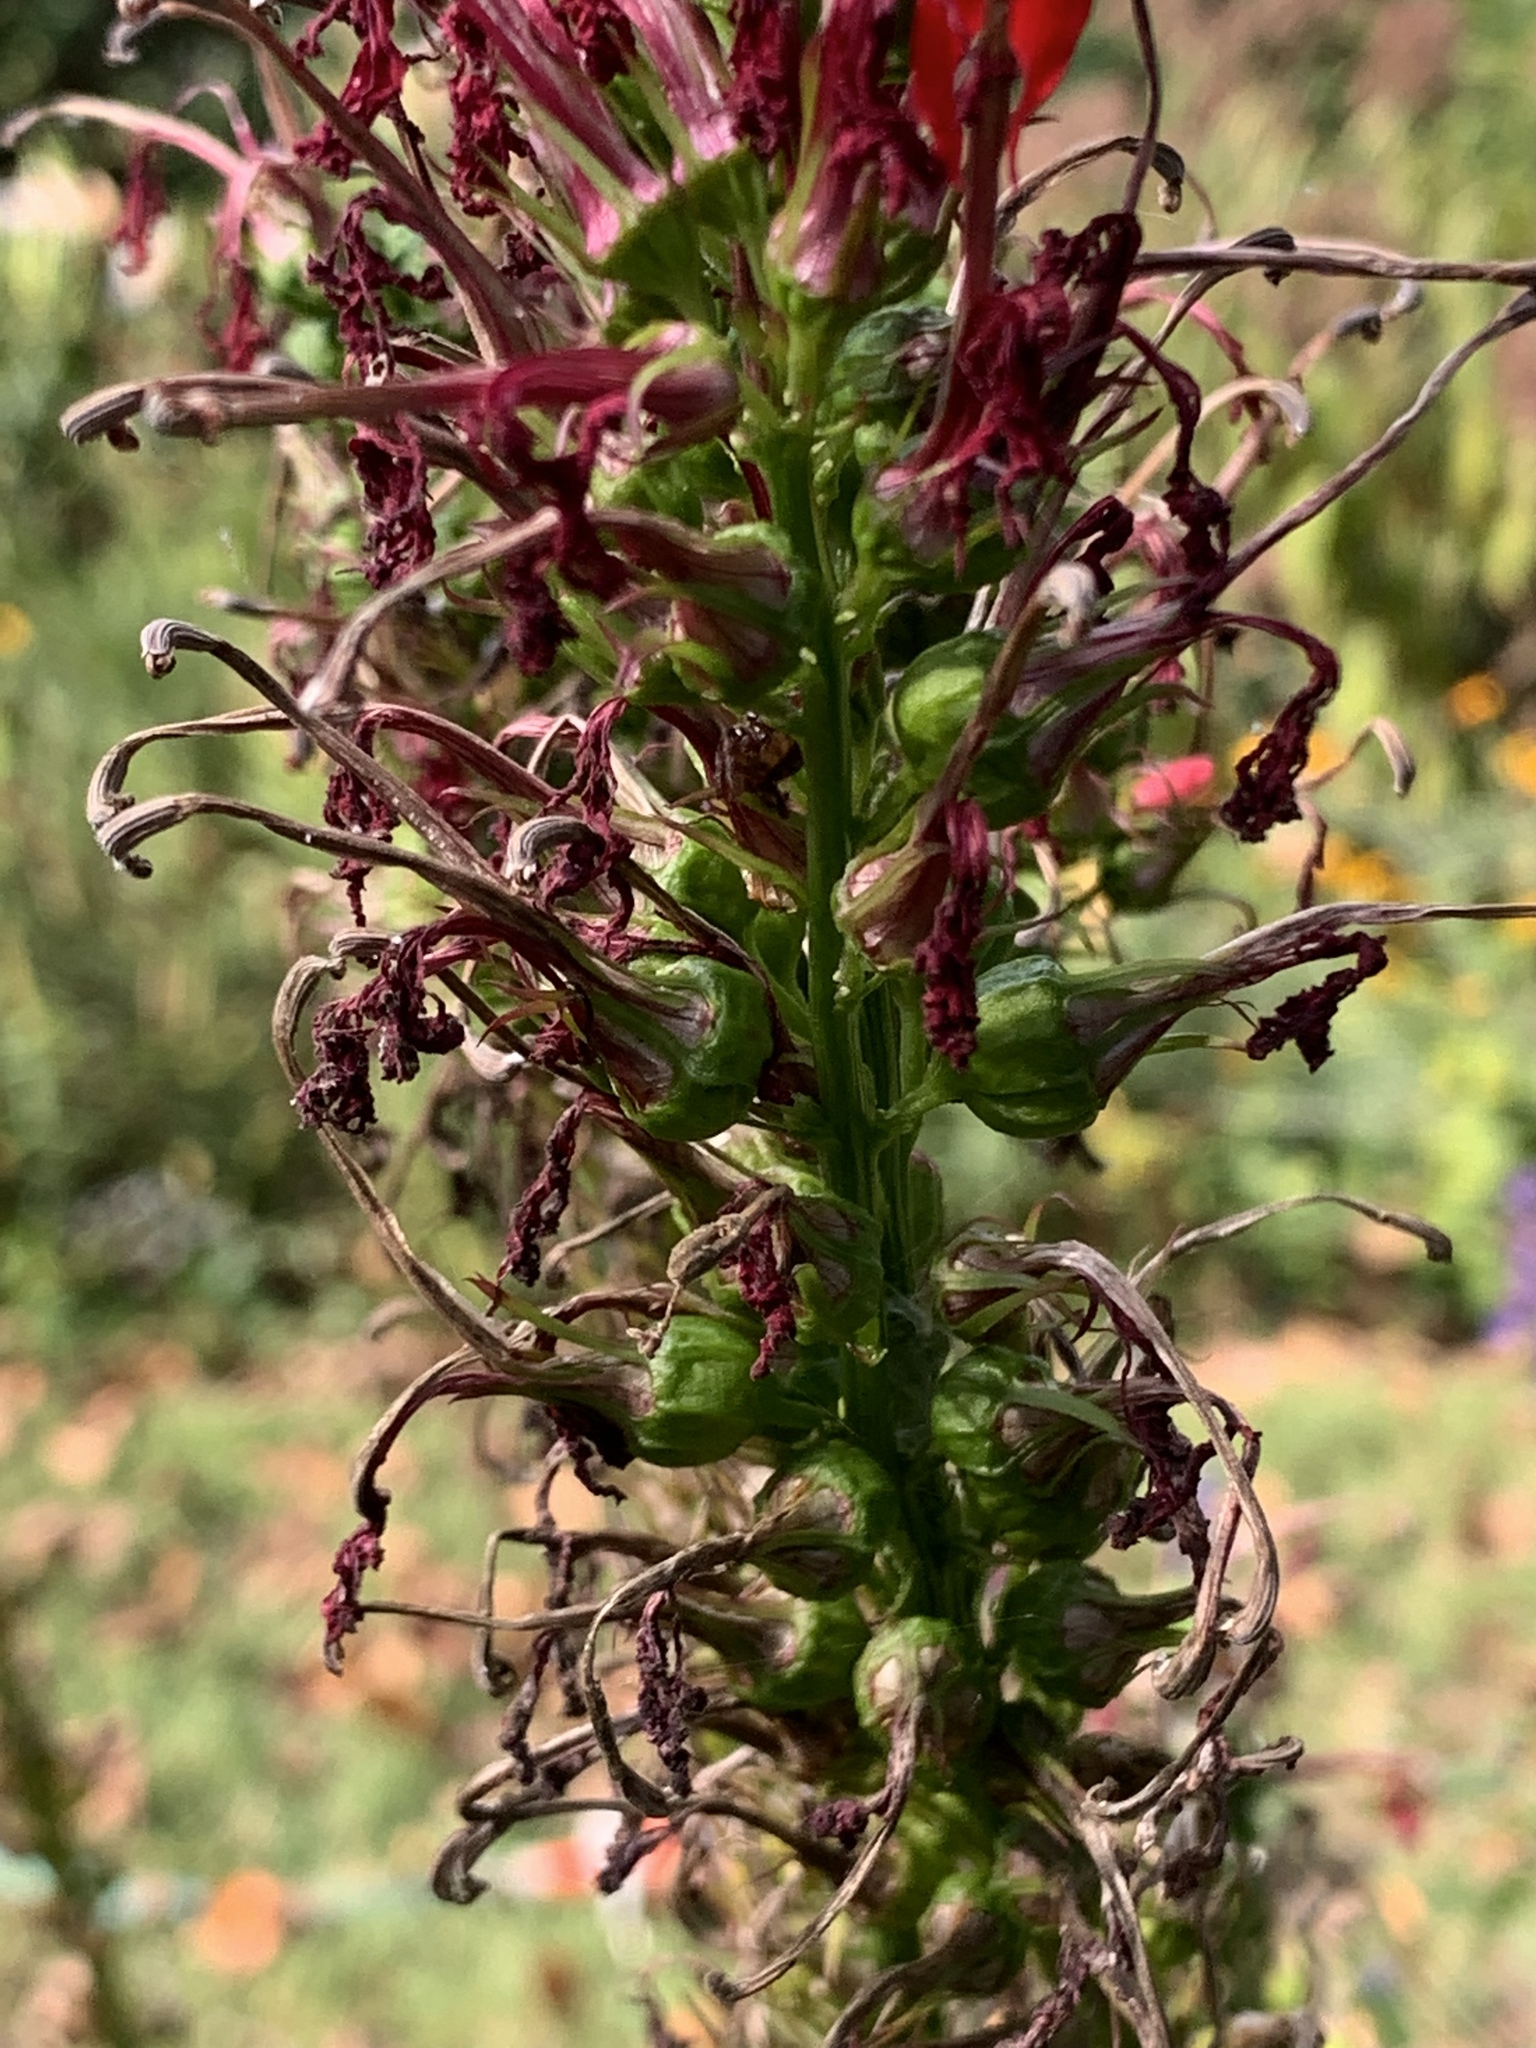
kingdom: Plantae
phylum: Tracheophyta
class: Magnoliopsida
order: Asterales
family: Campanulaceae
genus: Lobelia
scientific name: Lobelia cardinalis
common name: Cardinal flower
